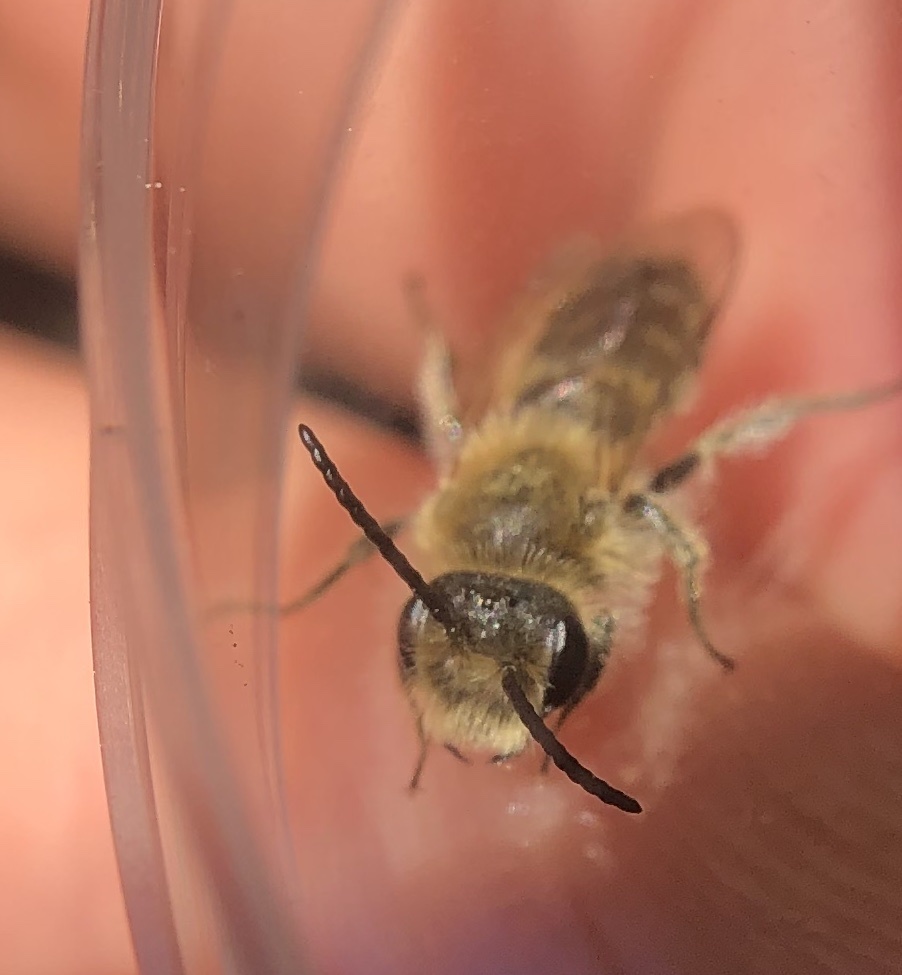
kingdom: Animalia
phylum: Arthropoda
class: Insecta
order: Hymenoptera
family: Andrenidae
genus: Andrena
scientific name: Andrena wilkella
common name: Wilke's mining bee
